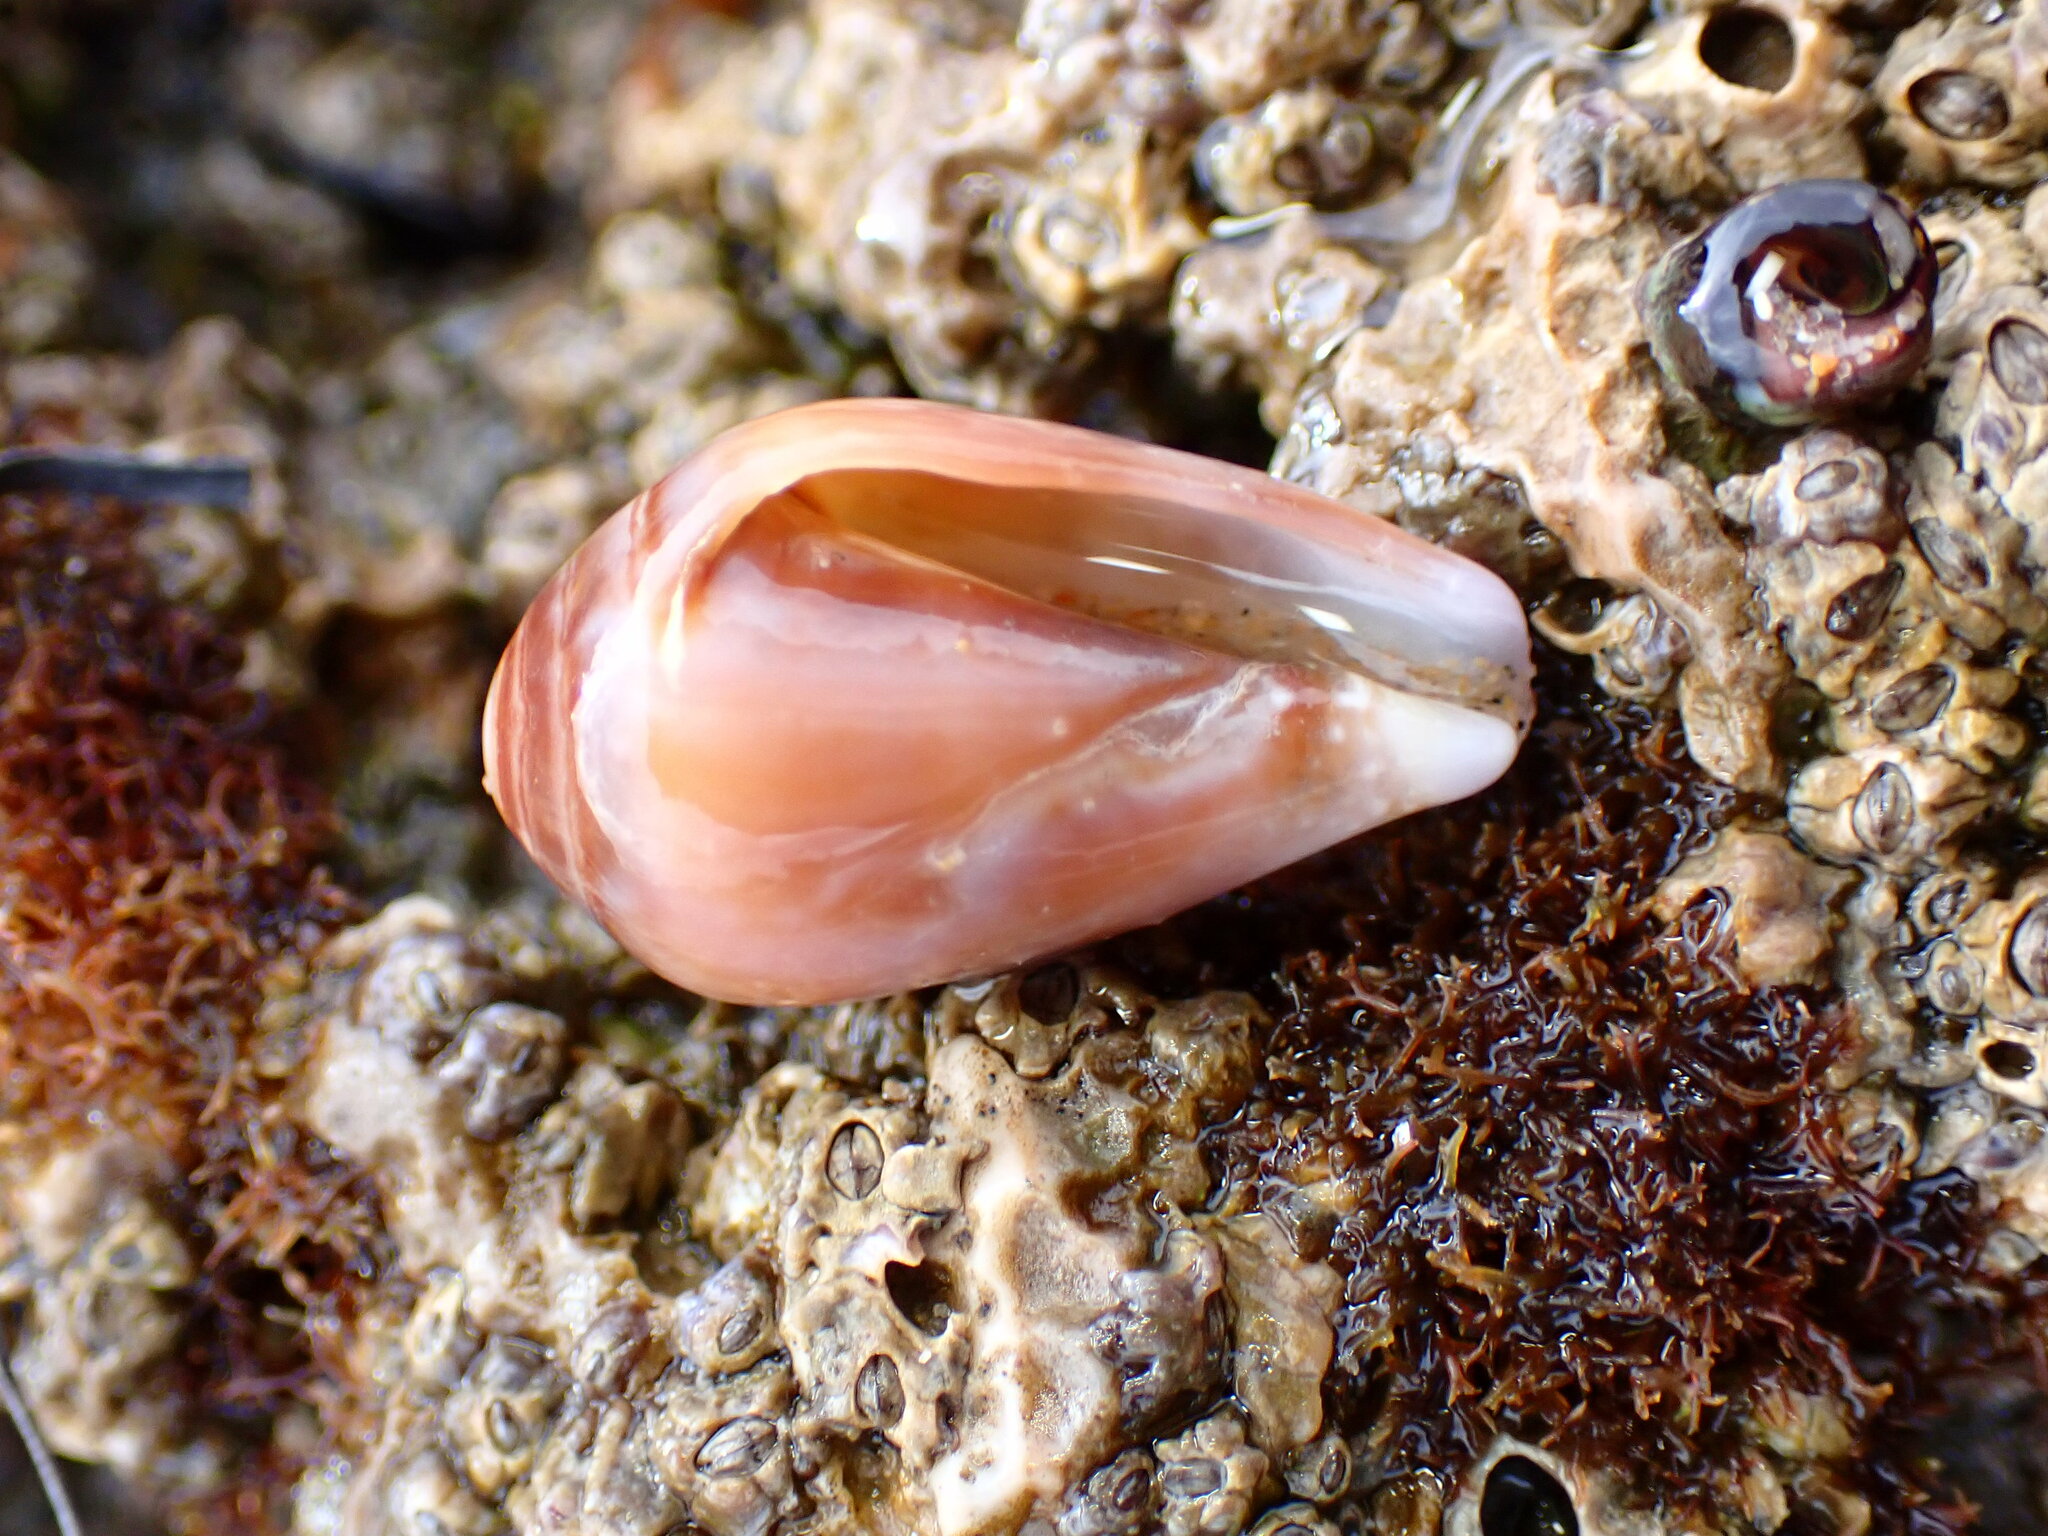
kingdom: Animalia
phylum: Mollusca
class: Gastropoda
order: Neogastropoda
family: Conidae
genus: Californiconus
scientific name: Californiconus californicus
